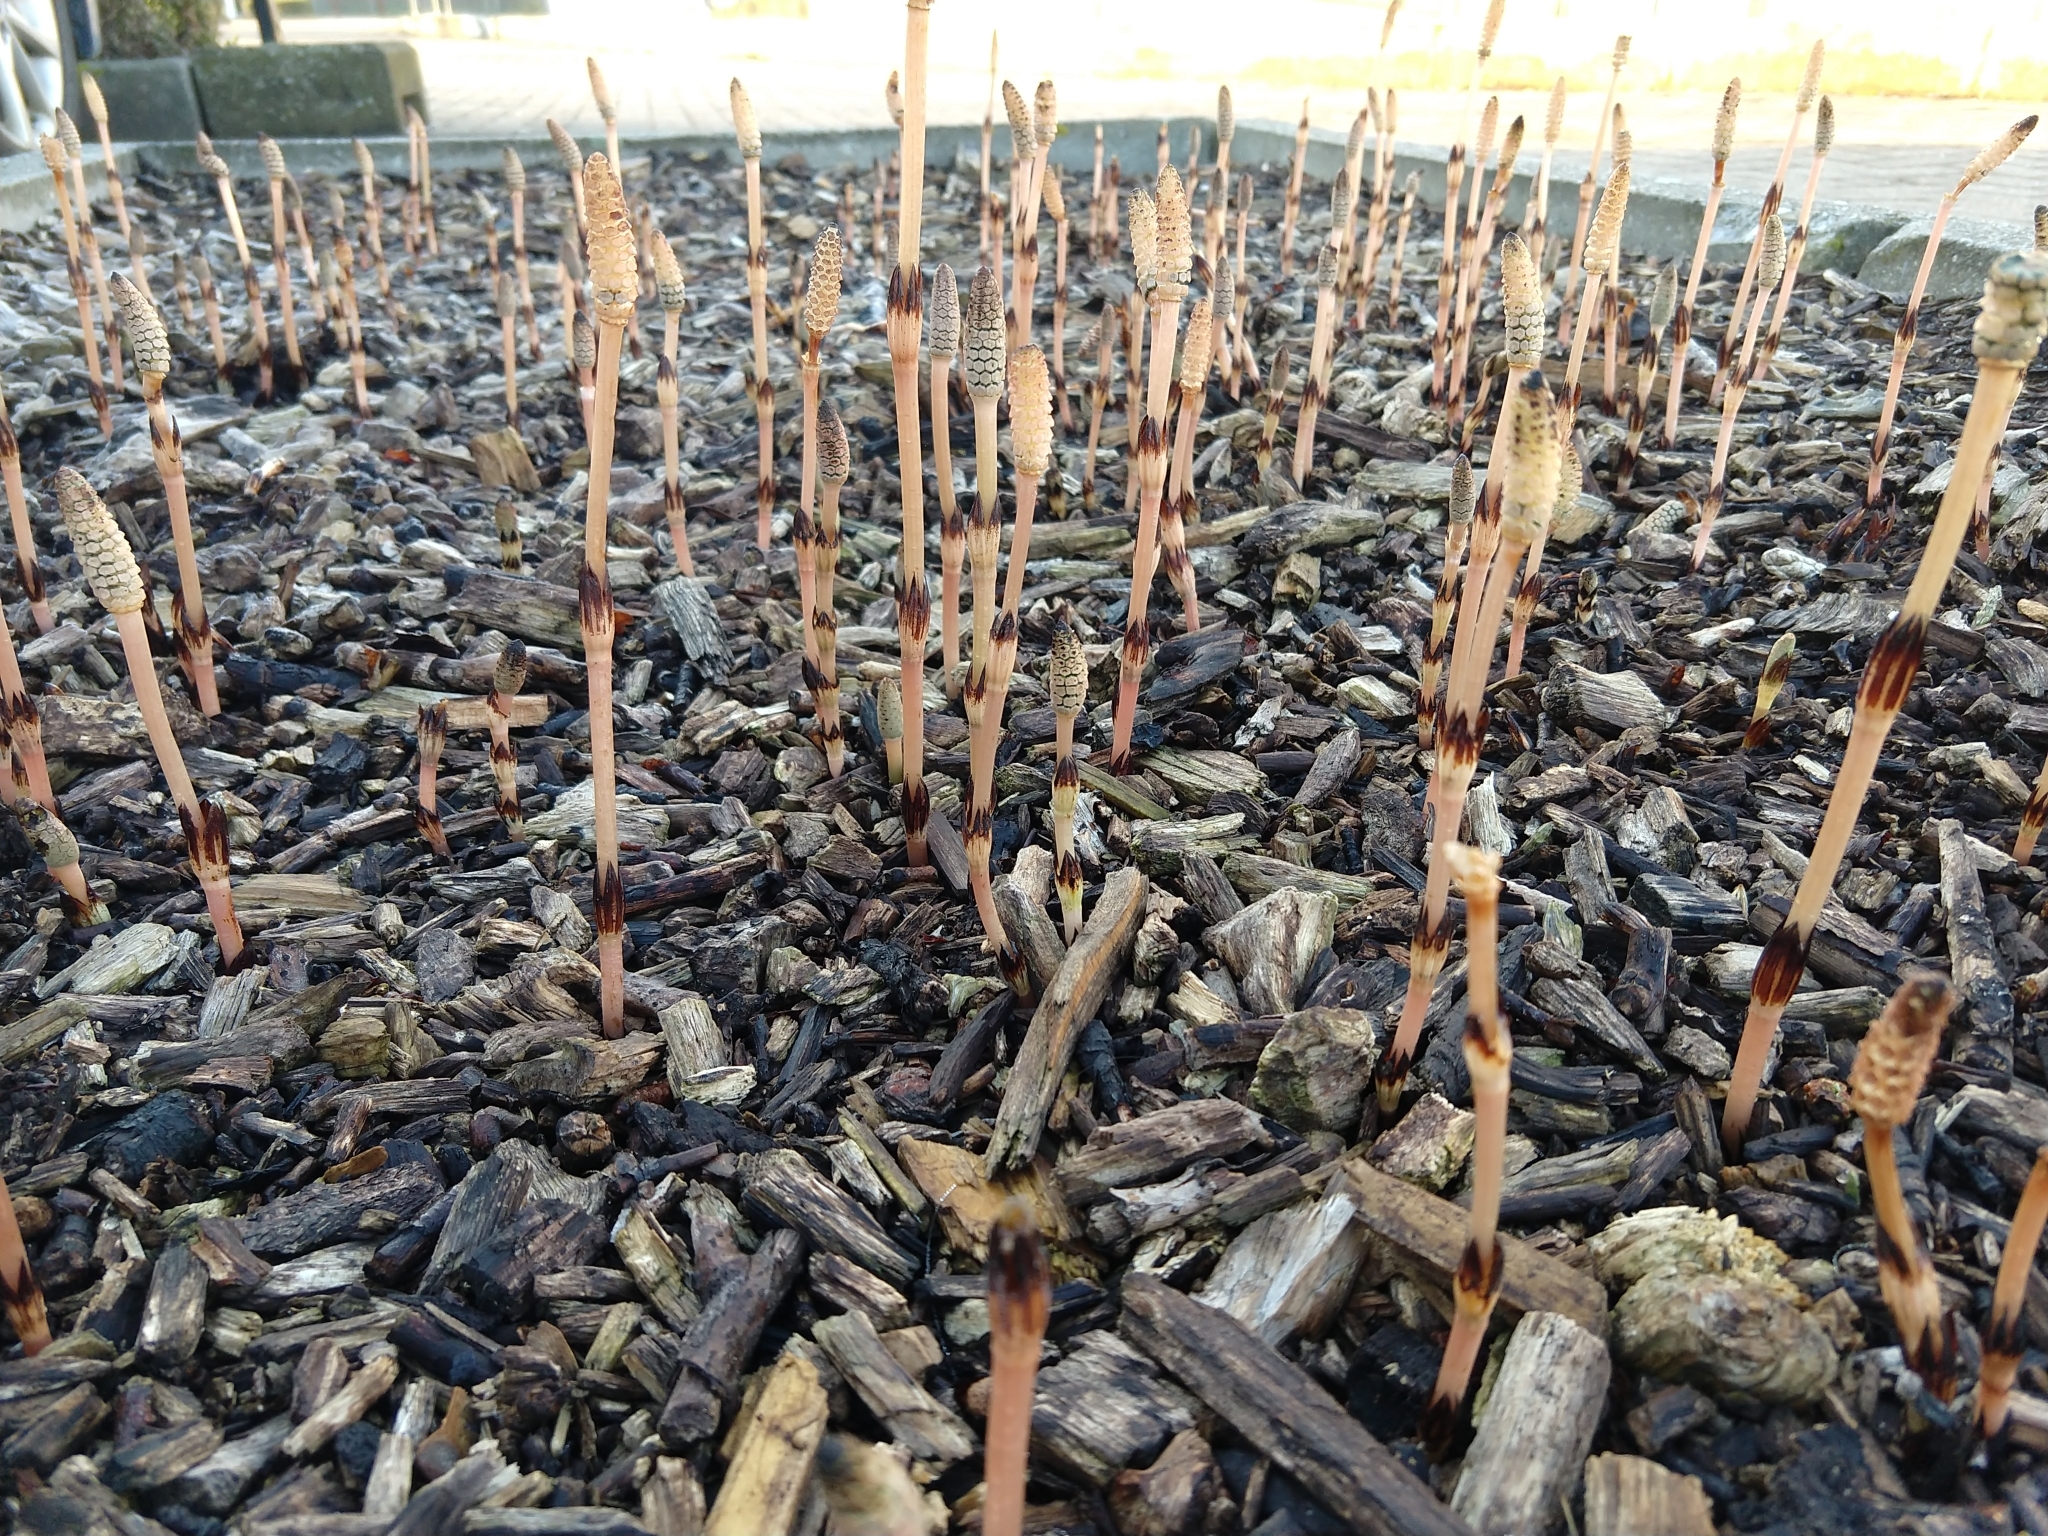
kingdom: Plantae
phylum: Tracheophyta
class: Polypodiopsida
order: Equisetales
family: Equisetaceae
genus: Equisetum
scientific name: Equisetum arvense
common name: Field horsetail
